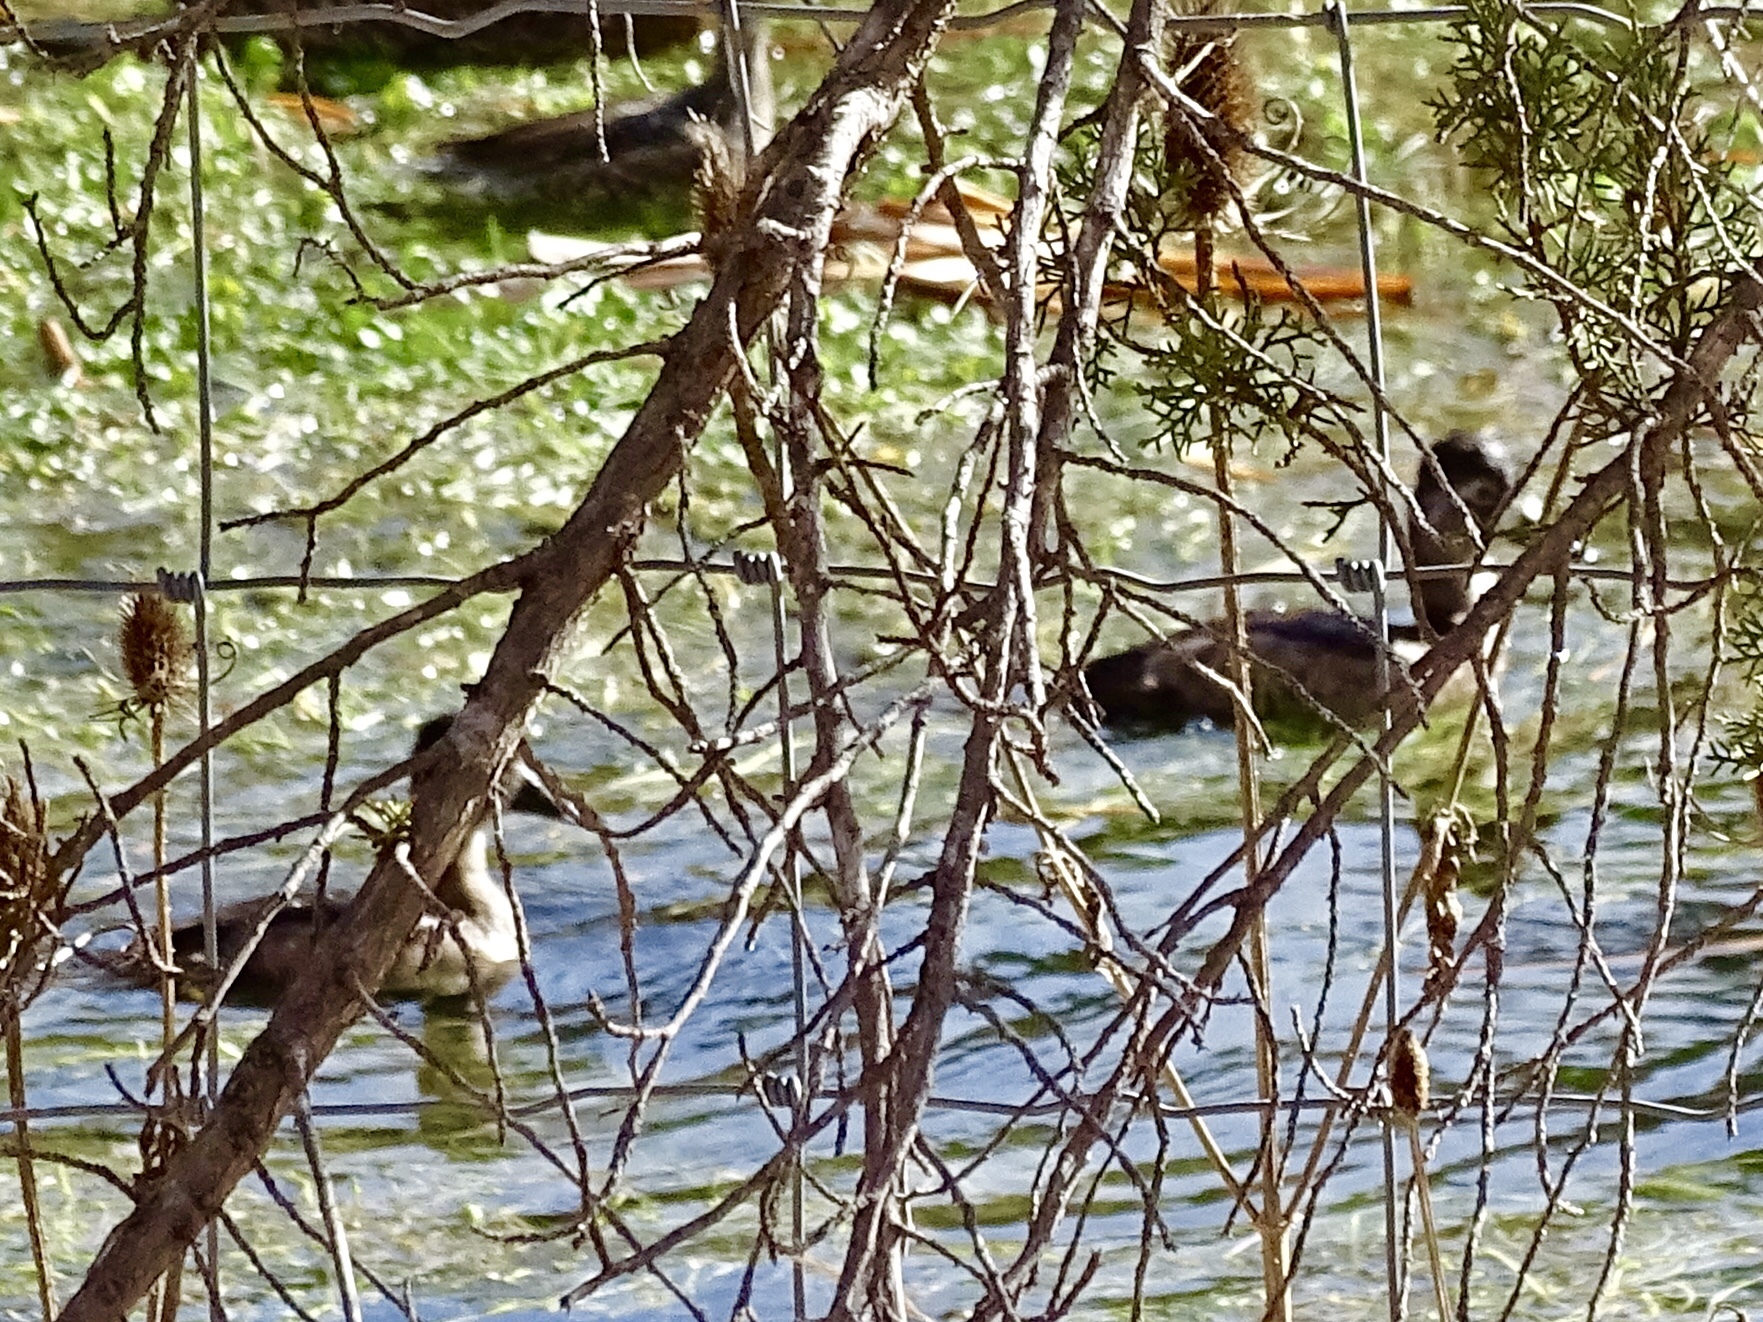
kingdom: Animalia
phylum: Chordata
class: Aves
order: Anseriformes
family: Anatidae
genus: Aythya
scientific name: Aythya collaris
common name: Ring-necked duck
